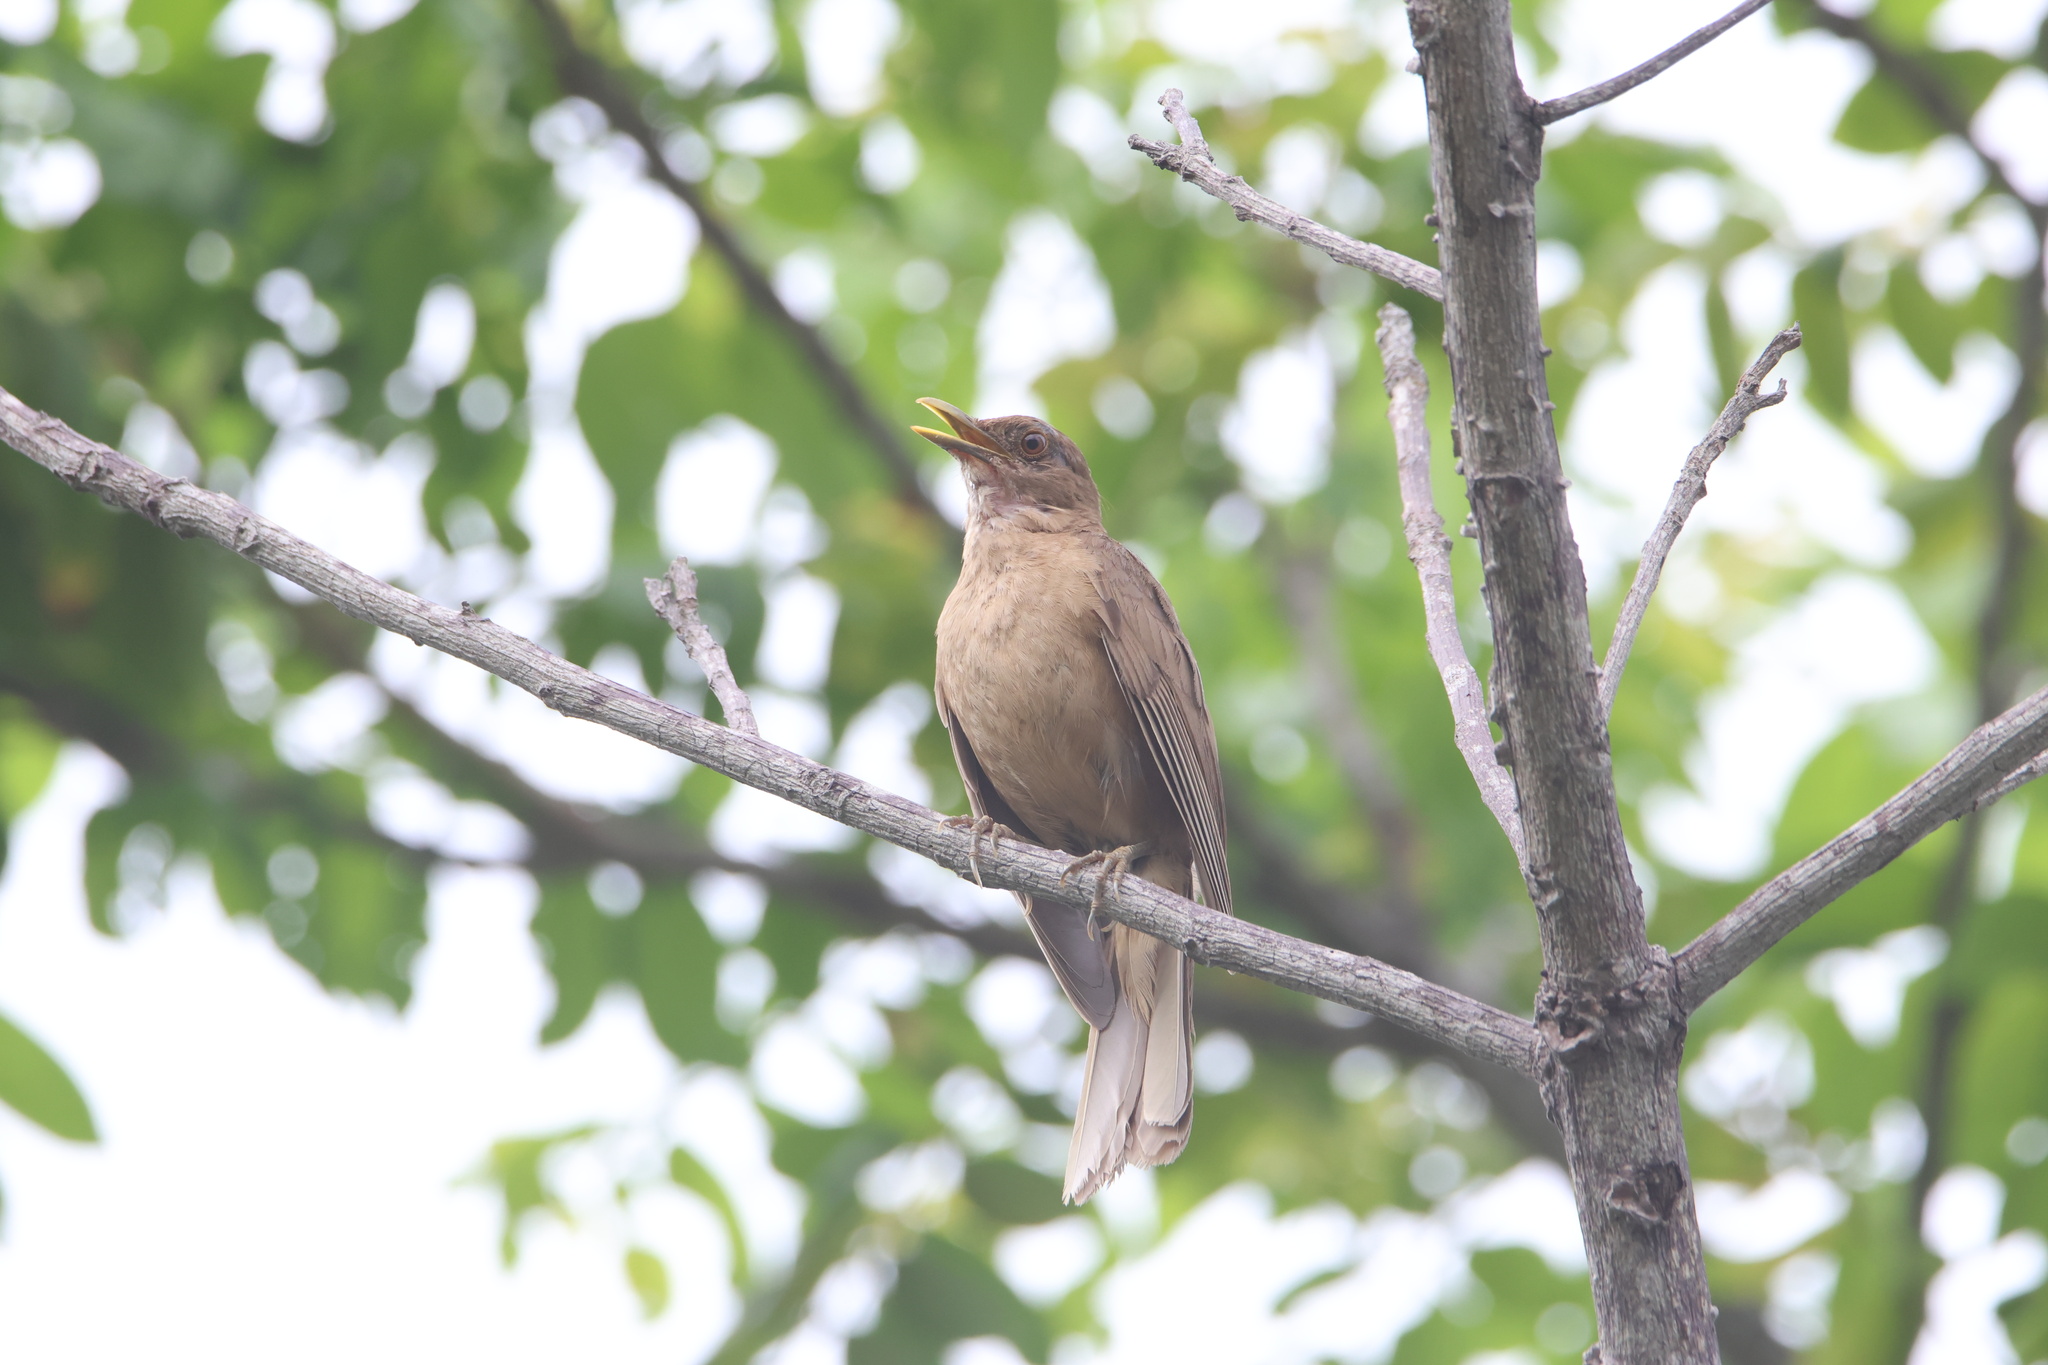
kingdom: Animalia
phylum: Chordata
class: Aves
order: Passeriformes
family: Turdidae
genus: Turdus
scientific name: Turdus grayi
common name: Clay-colored thrush
